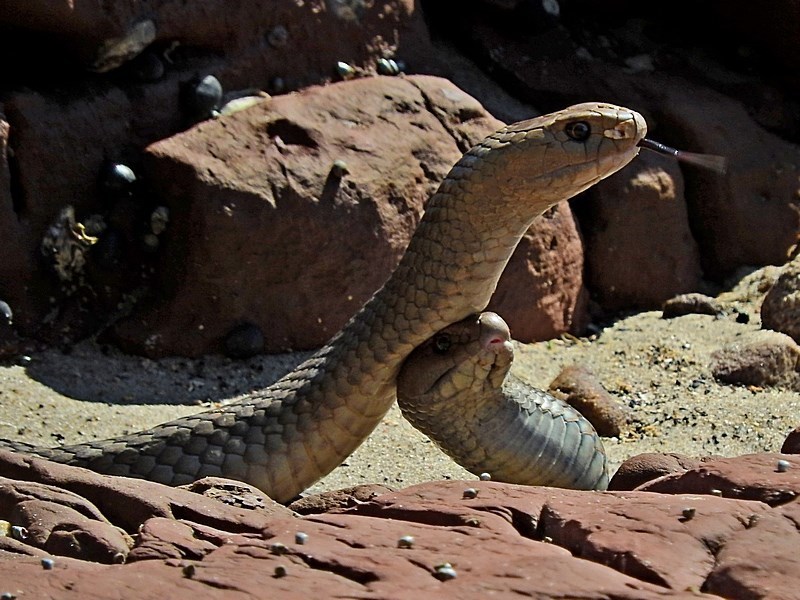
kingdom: Animalia
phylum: Chordata
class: Squamata
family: Elapidae
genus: Pseudonaja
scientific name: Pseudonaja textilis
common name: Eastern brown snake
